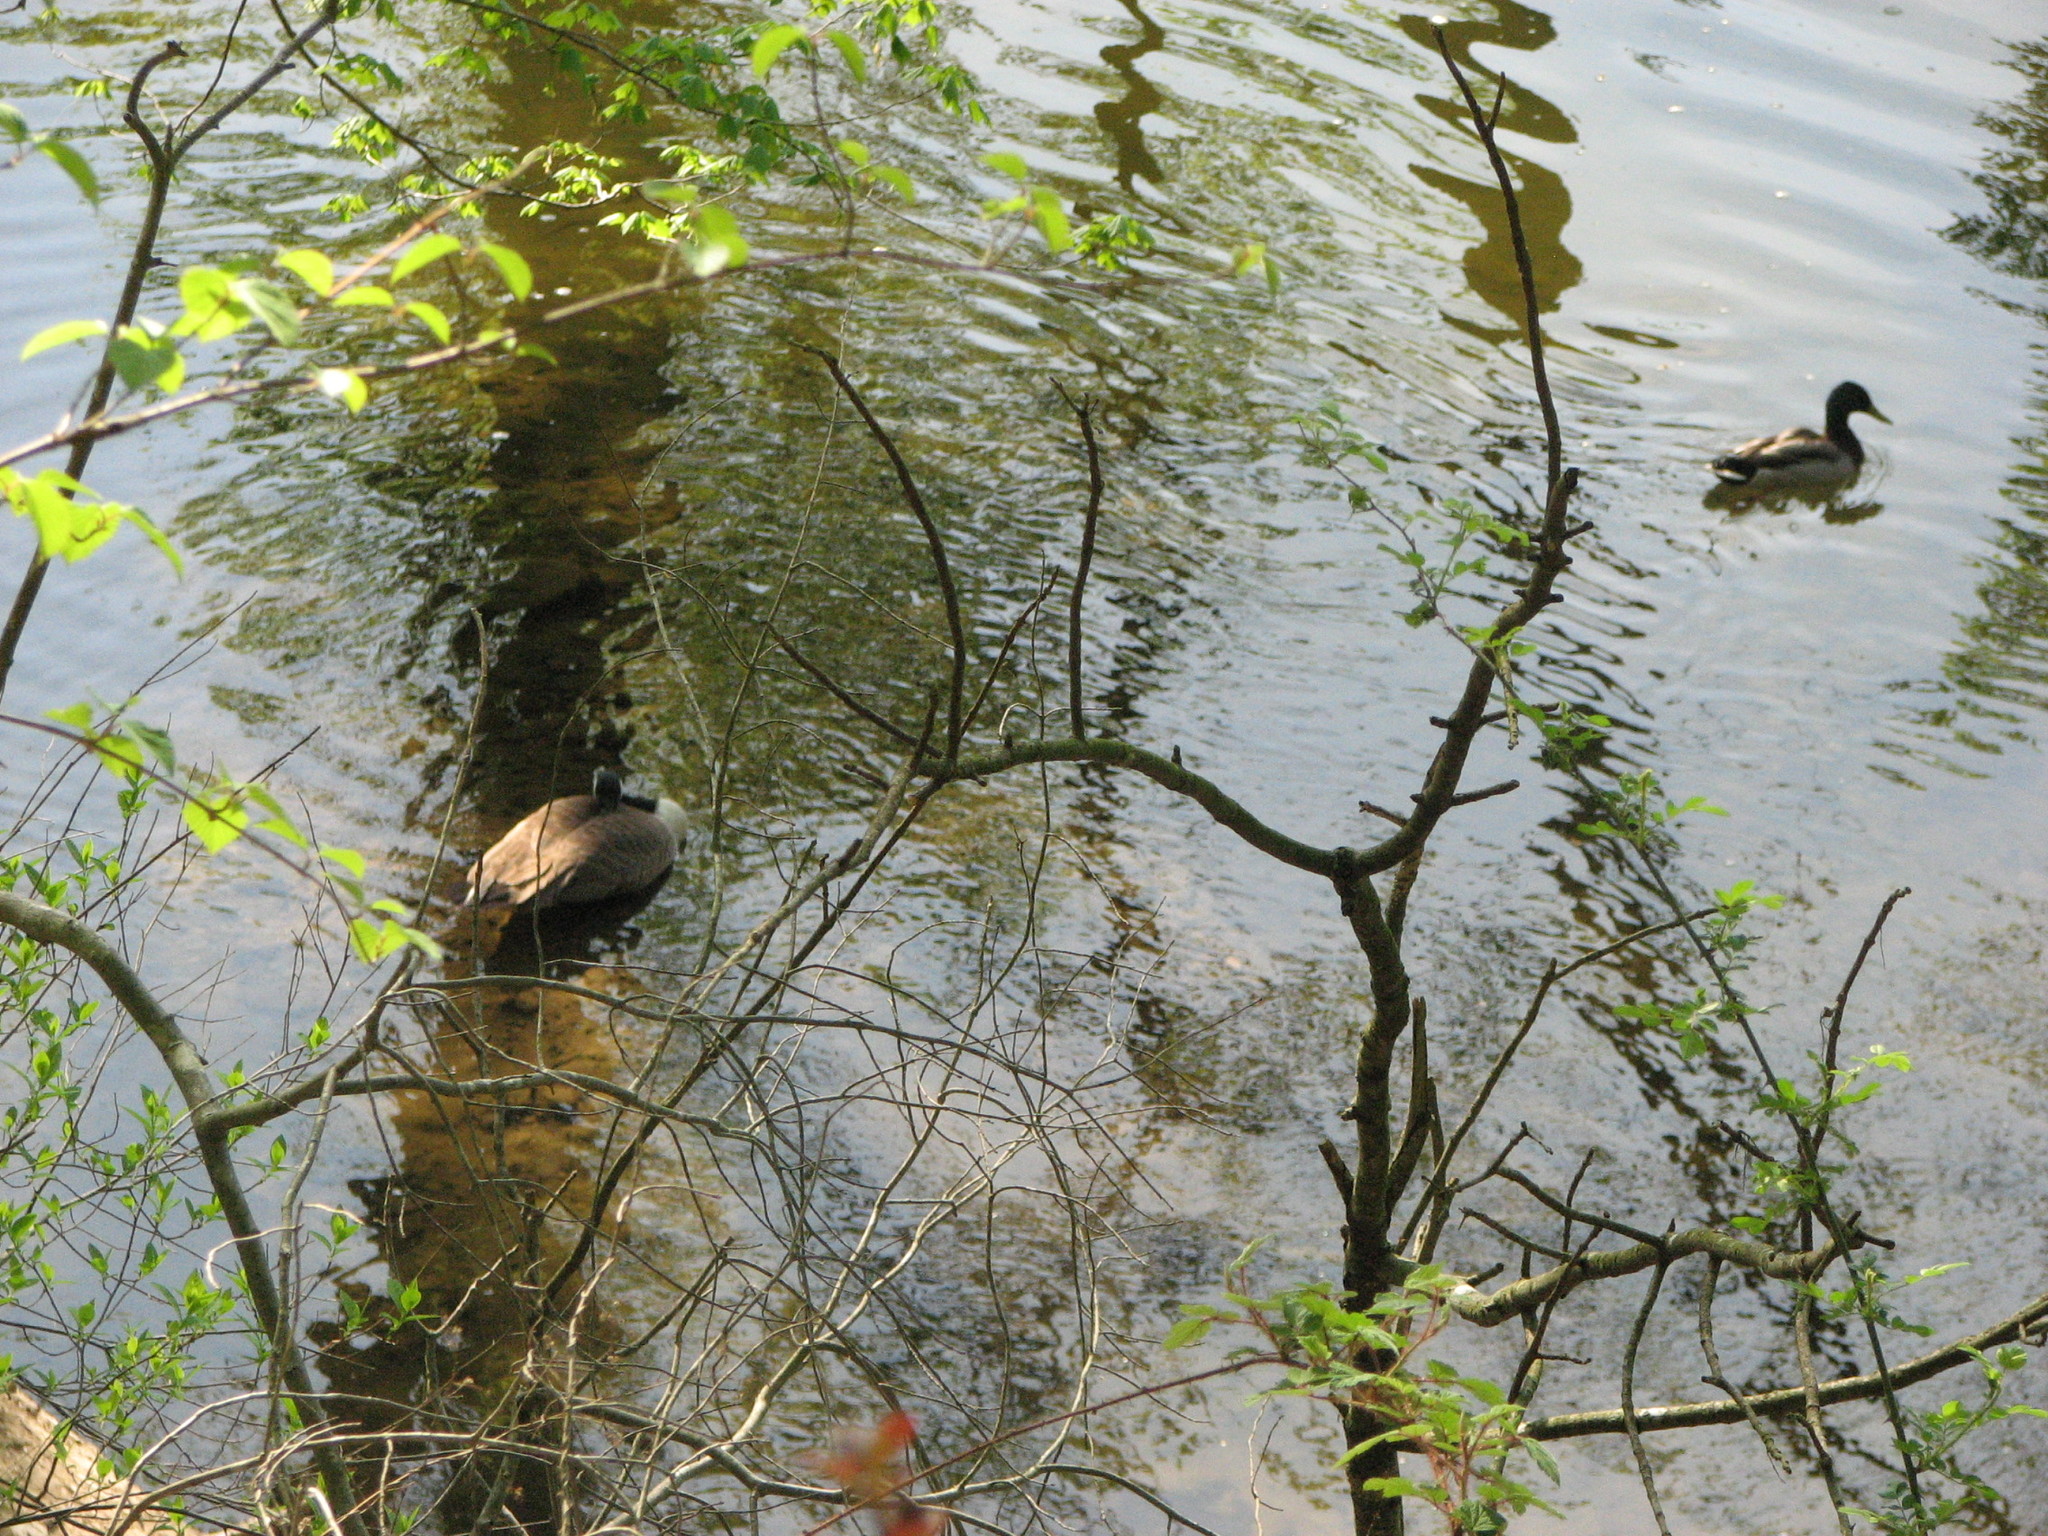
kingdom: Animalia
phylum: Chordata
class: Aves
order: Anseriformes
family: Anatidae
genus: Branta
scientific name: Branta canadensis
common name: Canada goose
